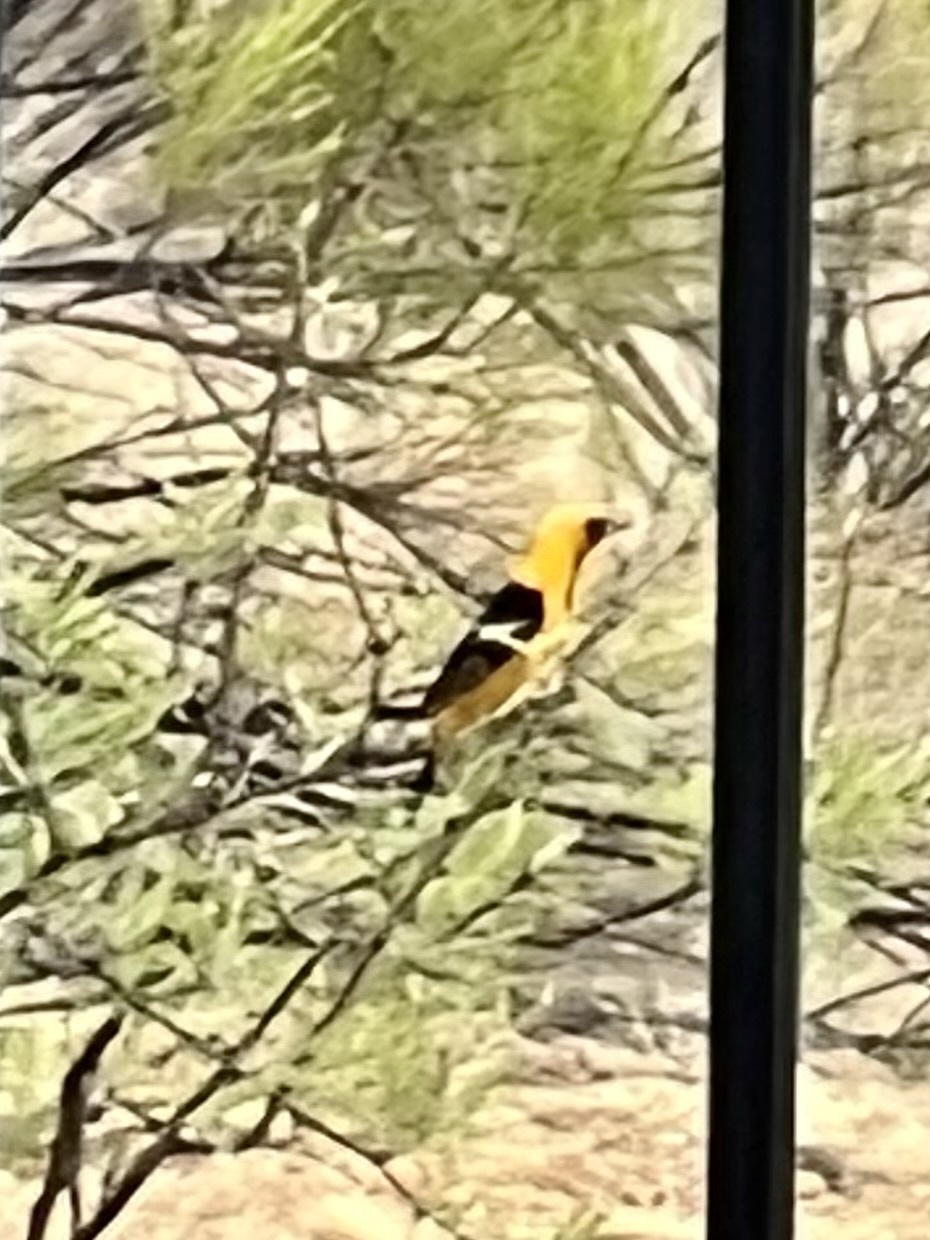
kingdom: Animalia
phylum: Chordata
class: Aves
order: Passeriformes
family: Icteridae
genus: Icterus
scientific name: Icterus cucullatus
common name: Hooded oriole
